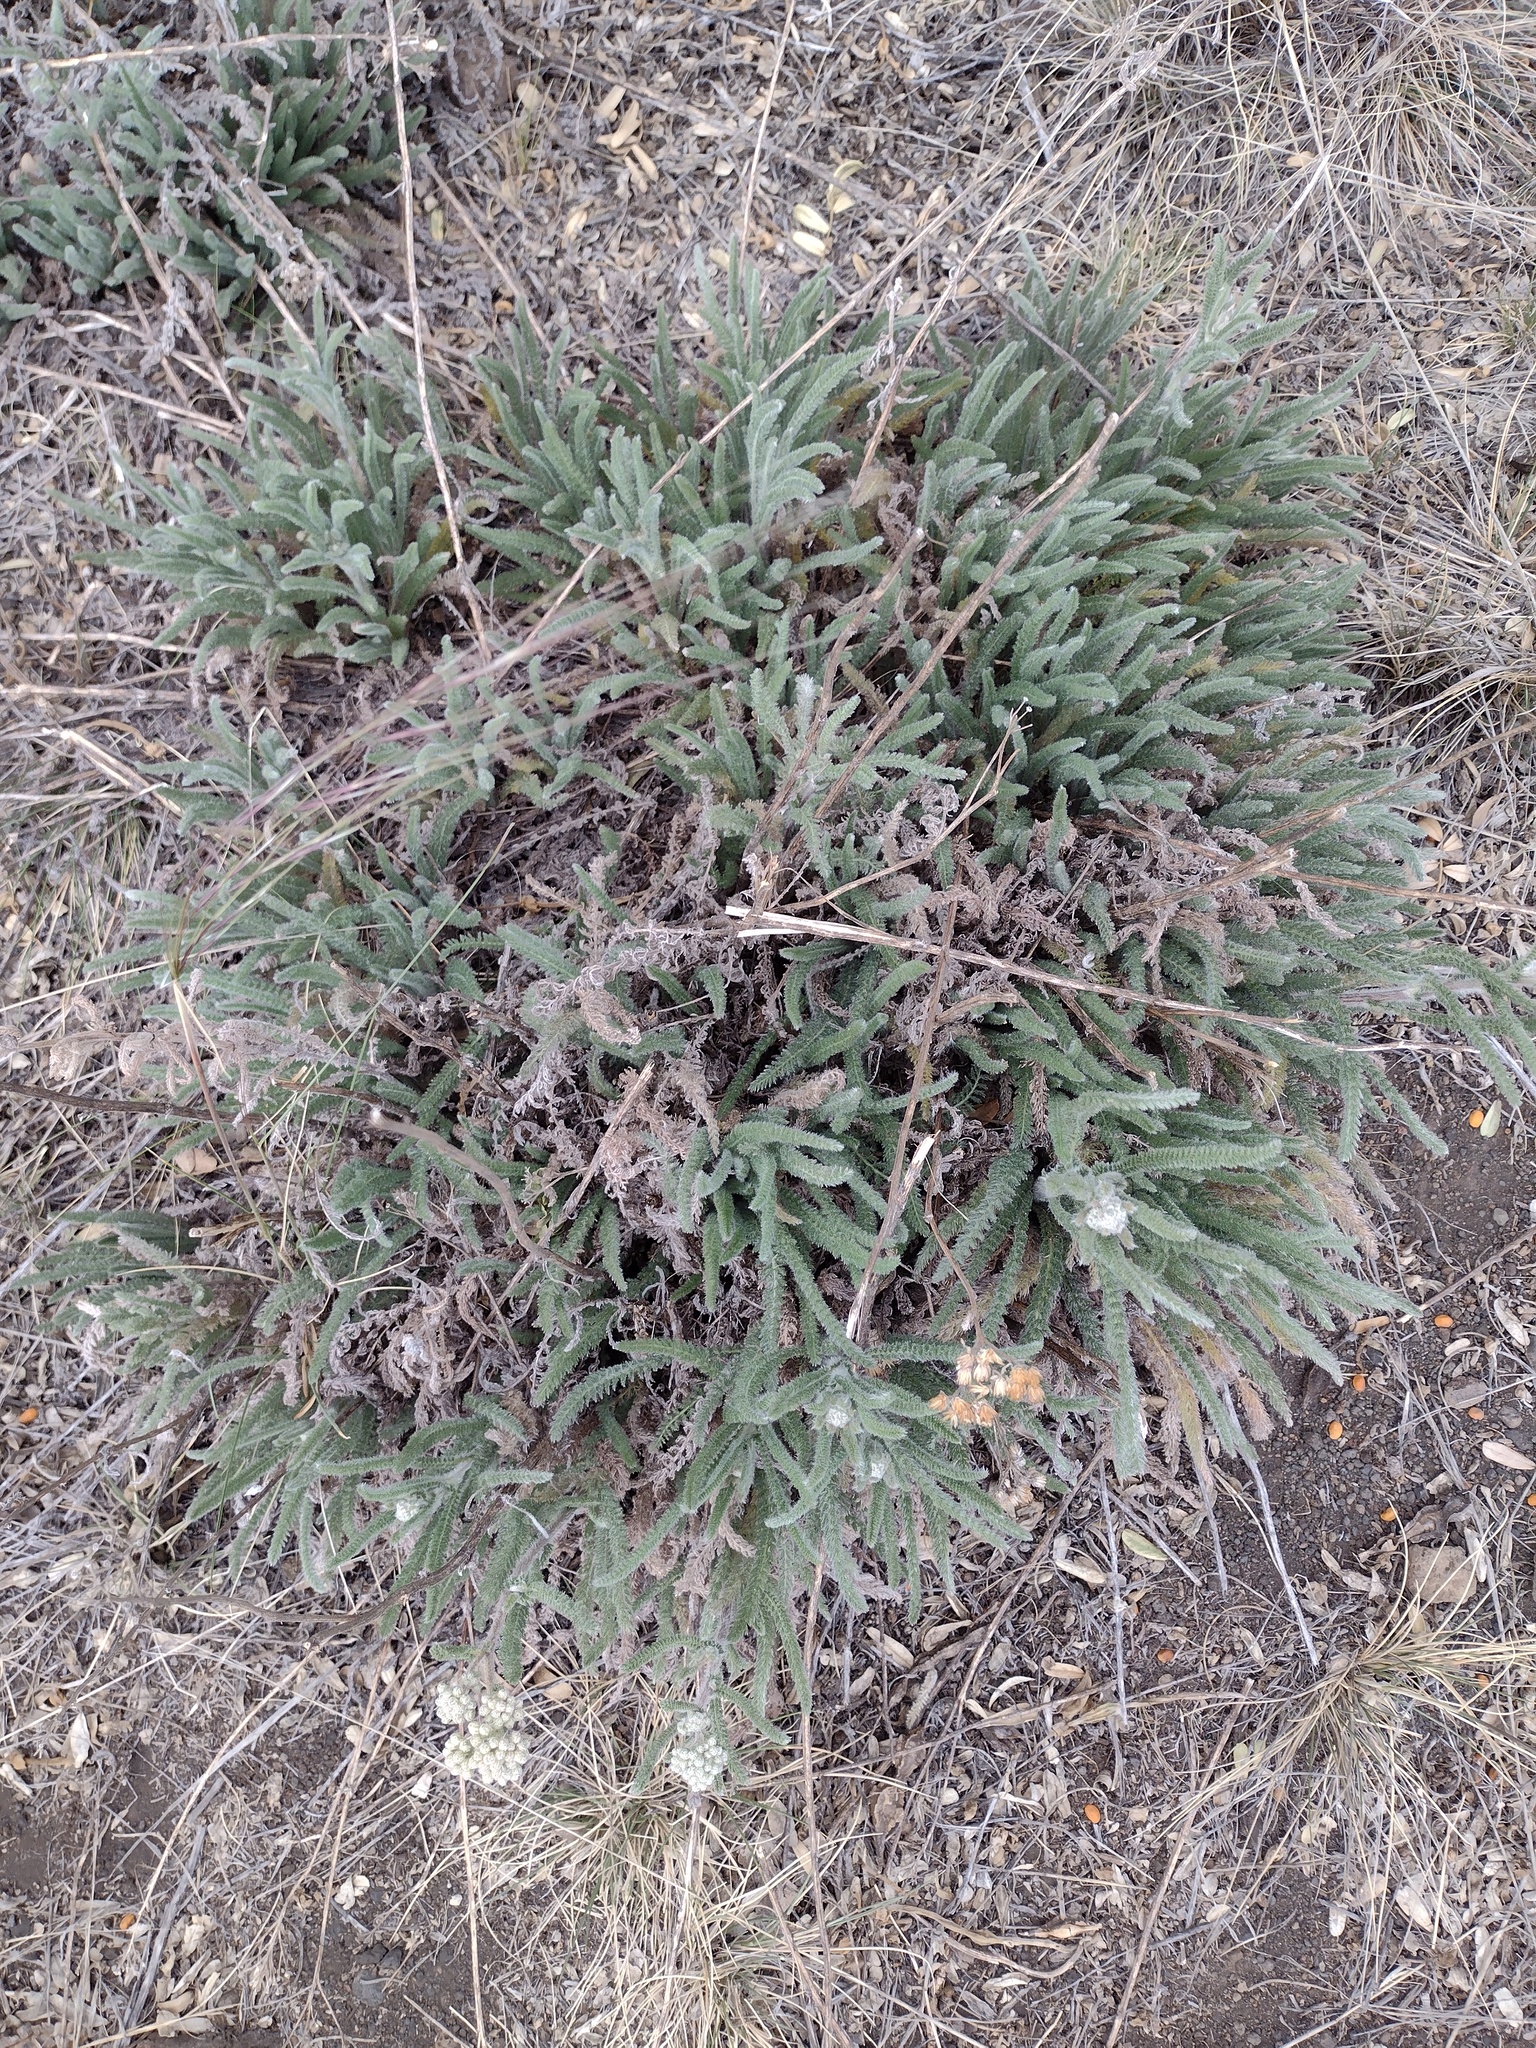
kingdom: Plantae
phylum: Tracheophyta
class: Magnoliopsida
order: Asterales
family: Asteraceae
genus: Achillea
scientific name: Achillea millefolium
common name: Yarrow
